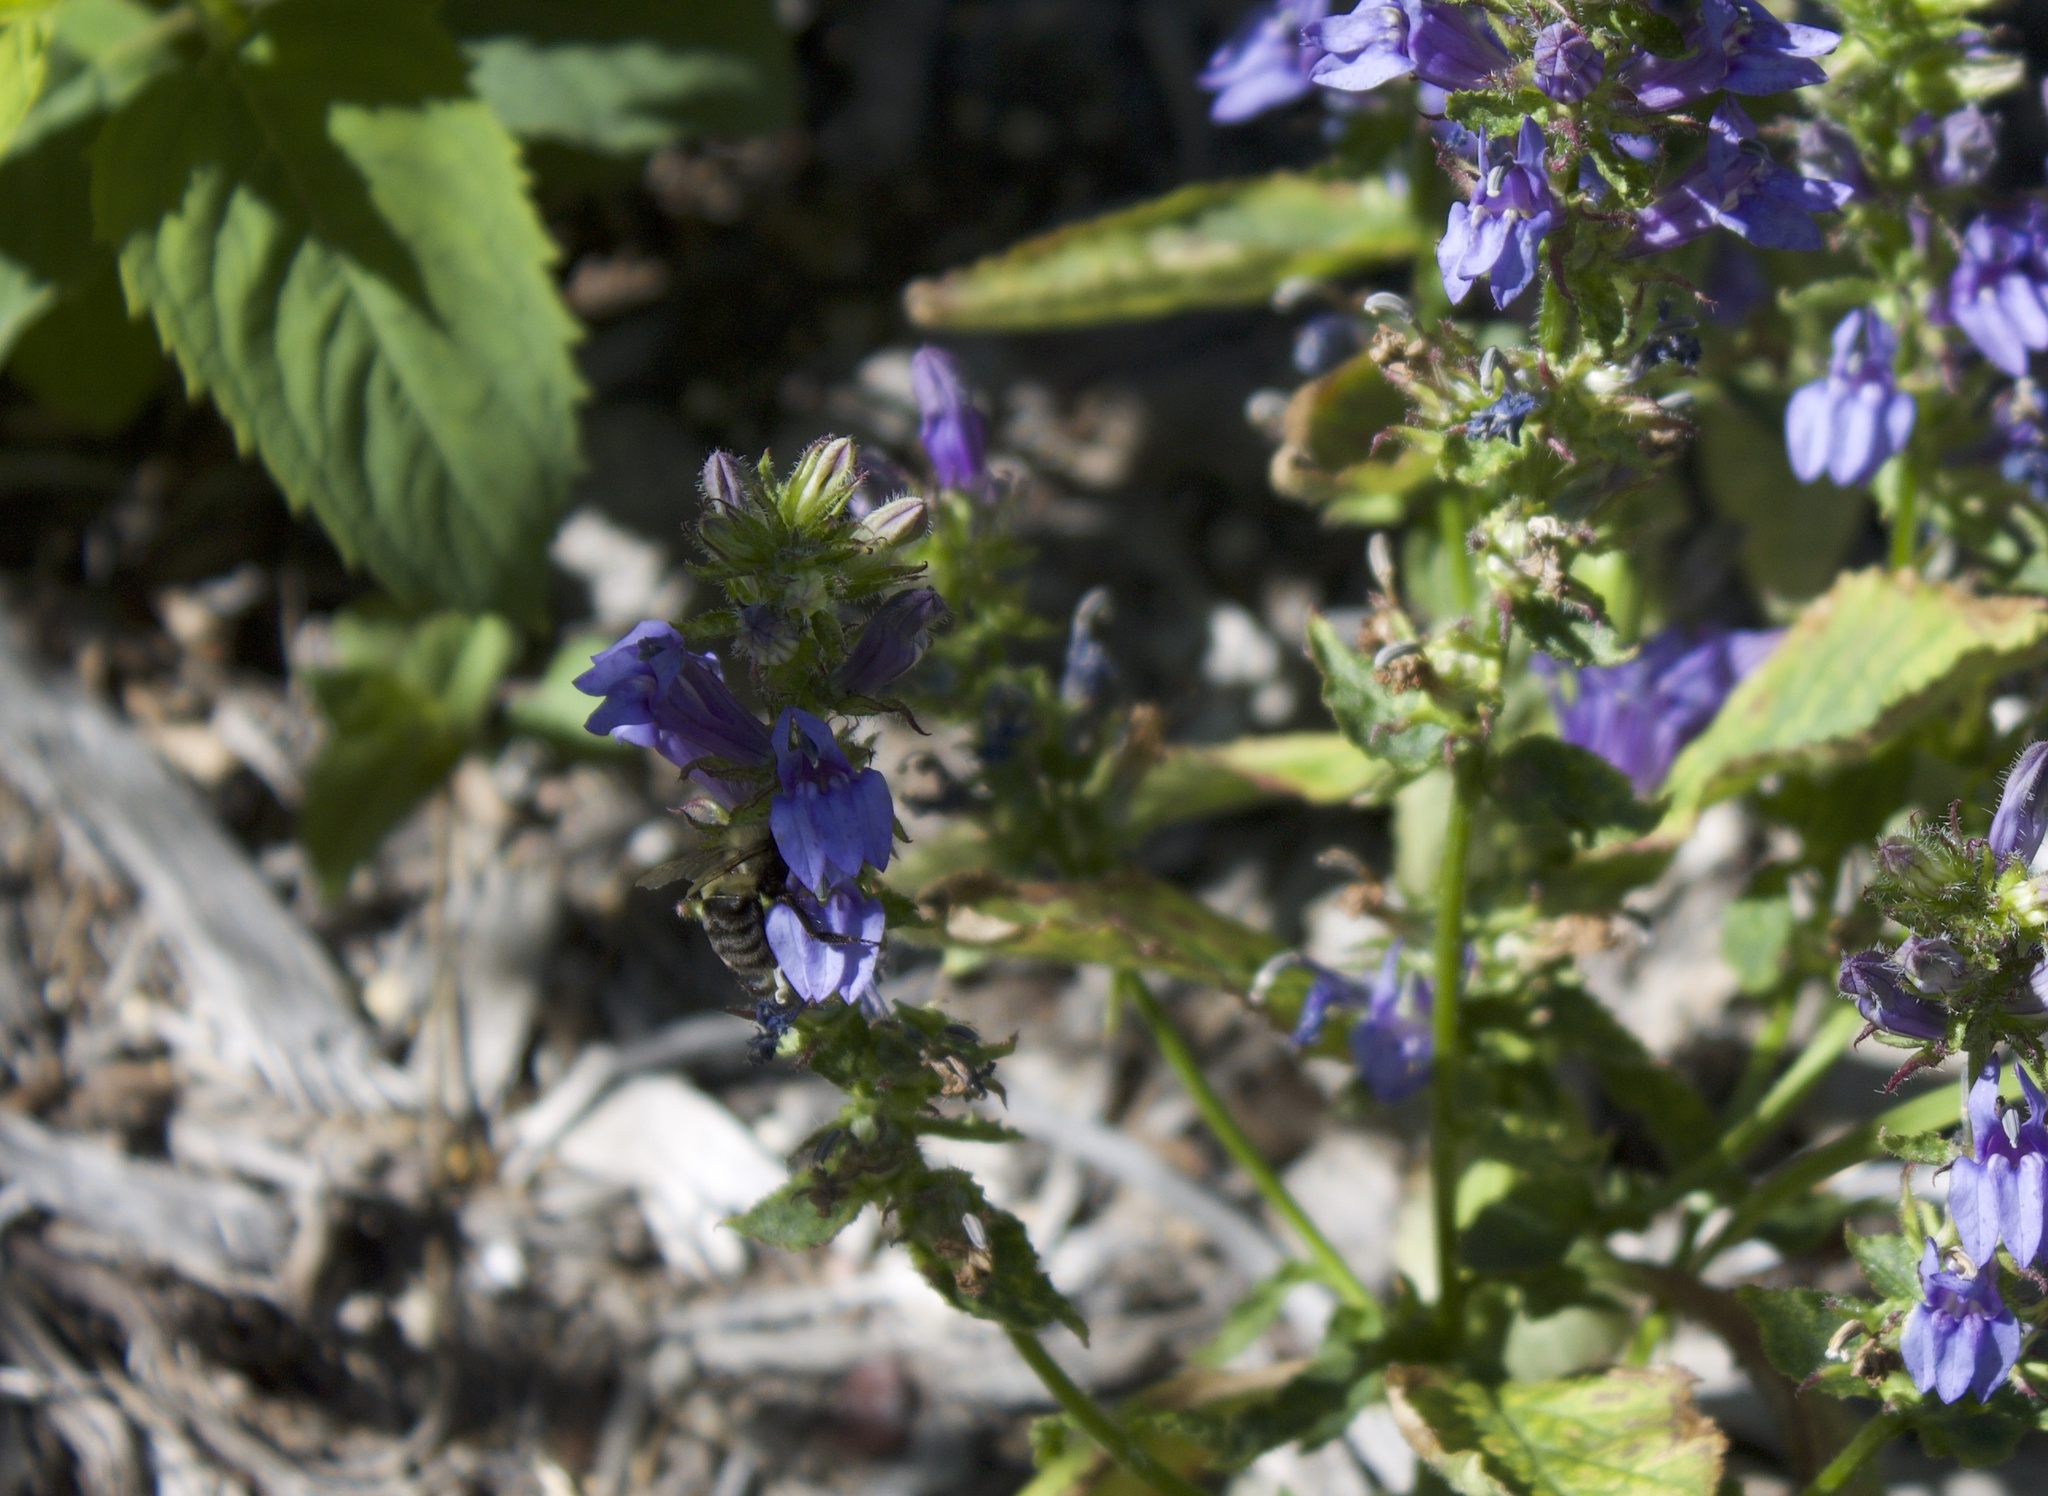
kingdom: Animalia
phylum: Arthropoda
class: Insecta
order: Hymenoptera
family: Apidae
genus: Bombus
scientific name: Bombus impatiens
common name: Common eastern bumble bee
